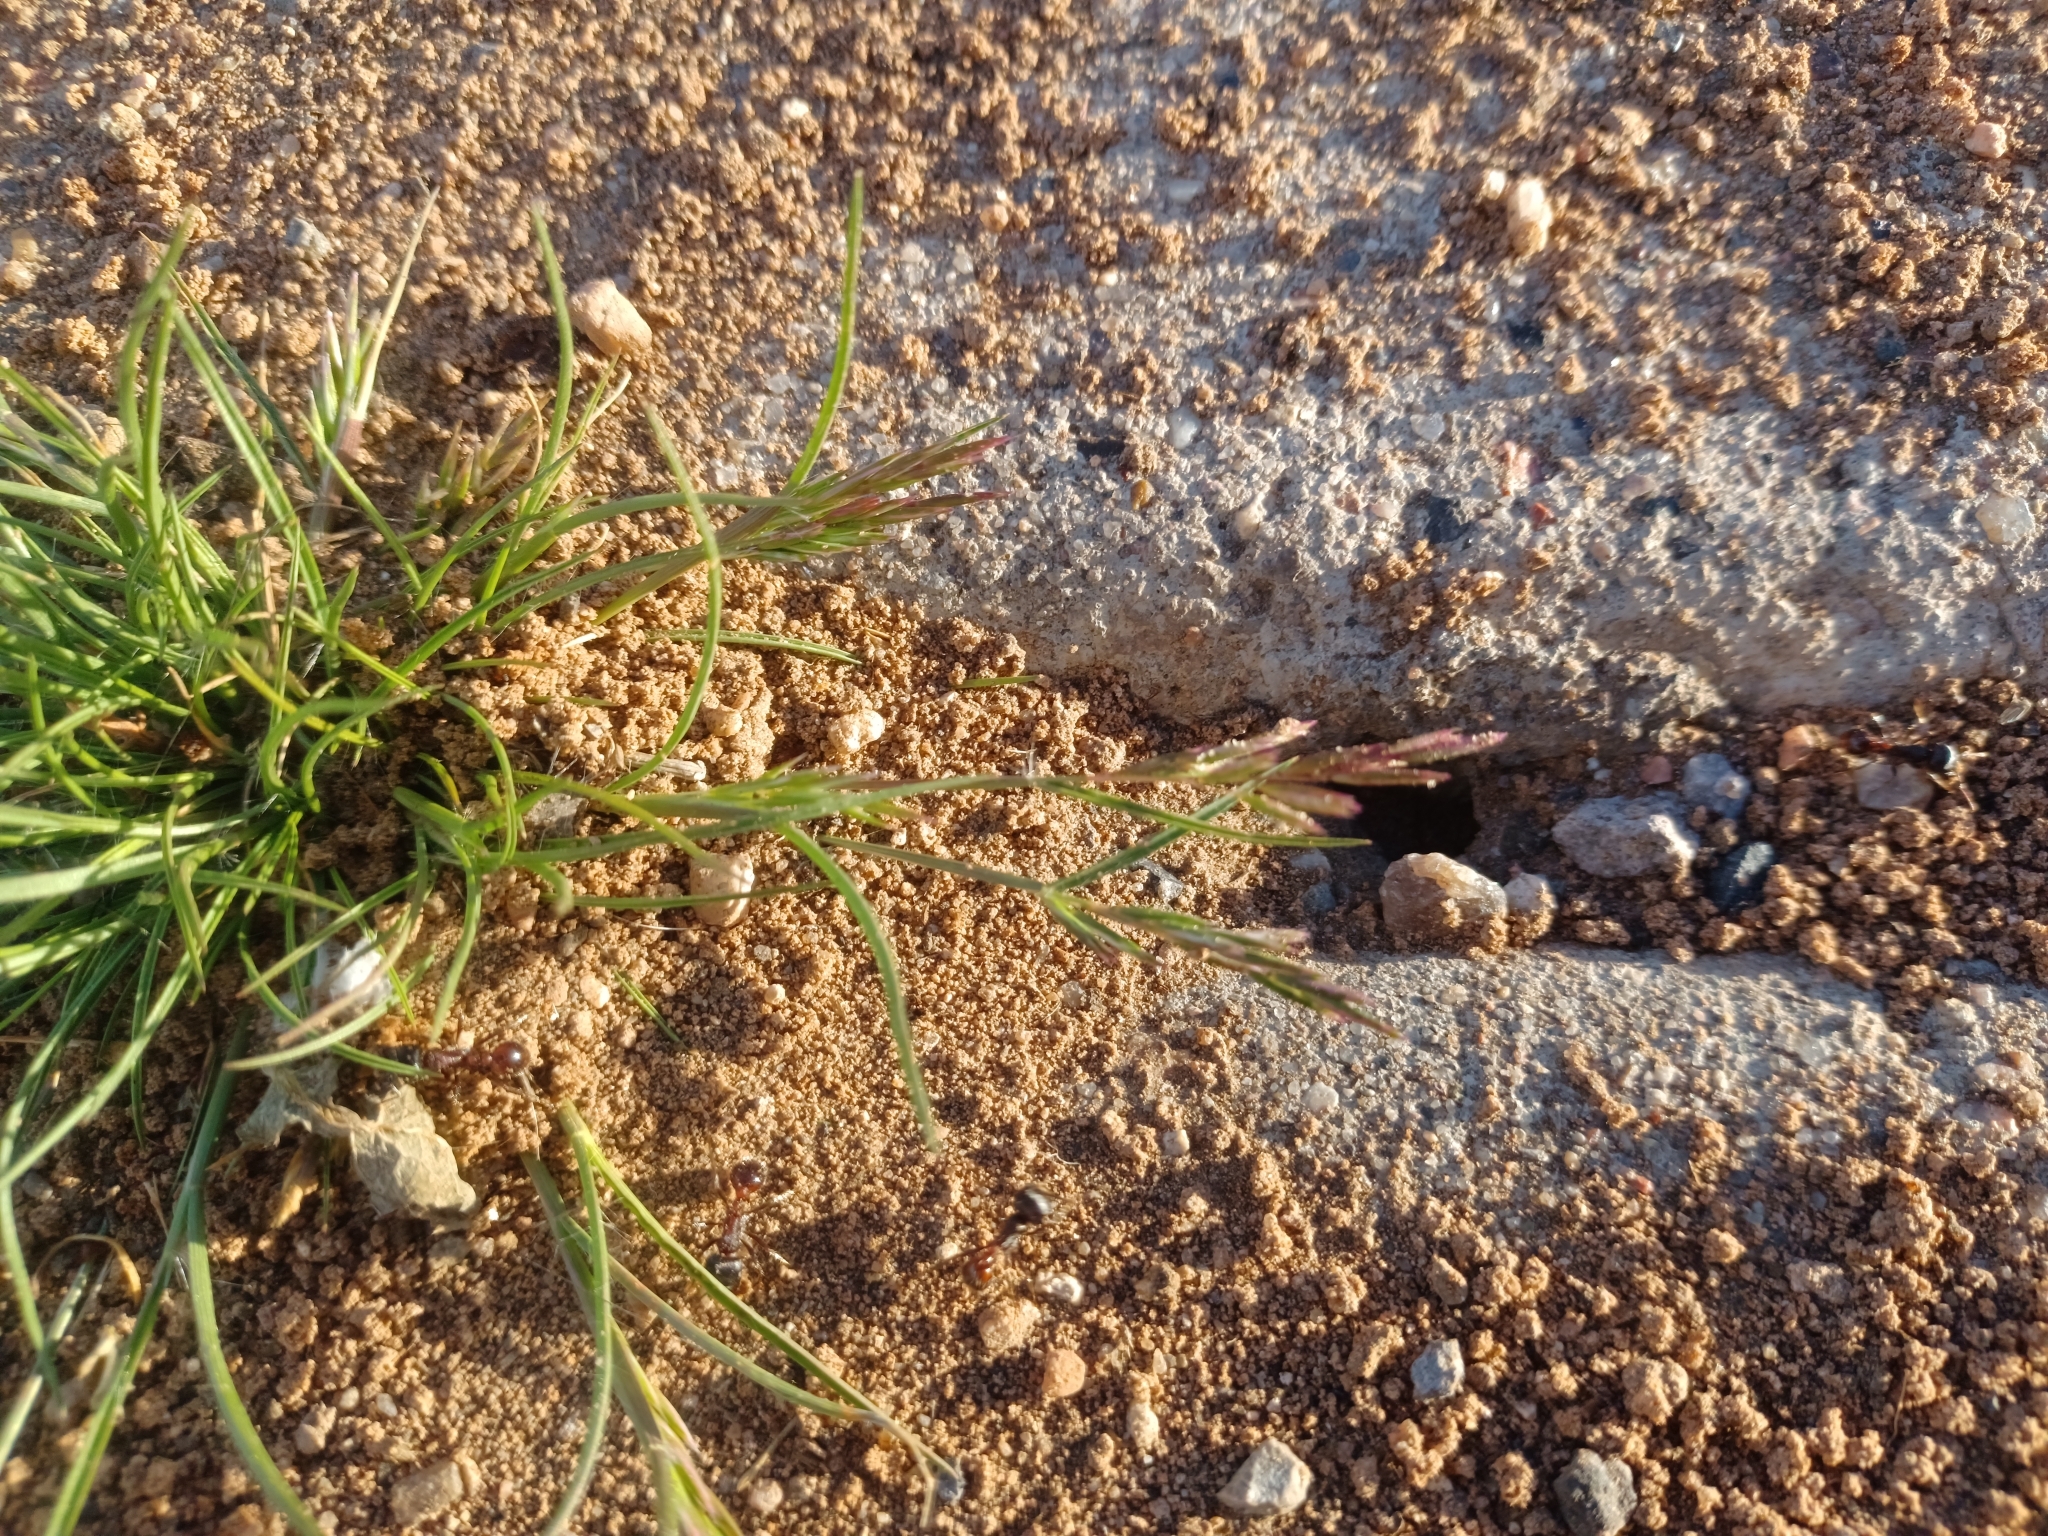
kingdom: Animalia
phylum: Arthropoda
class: Insecta
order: Hymenoptera
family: Formicidae
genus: Pogonomyrmex
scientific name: Pogonomyrmex rugosus
